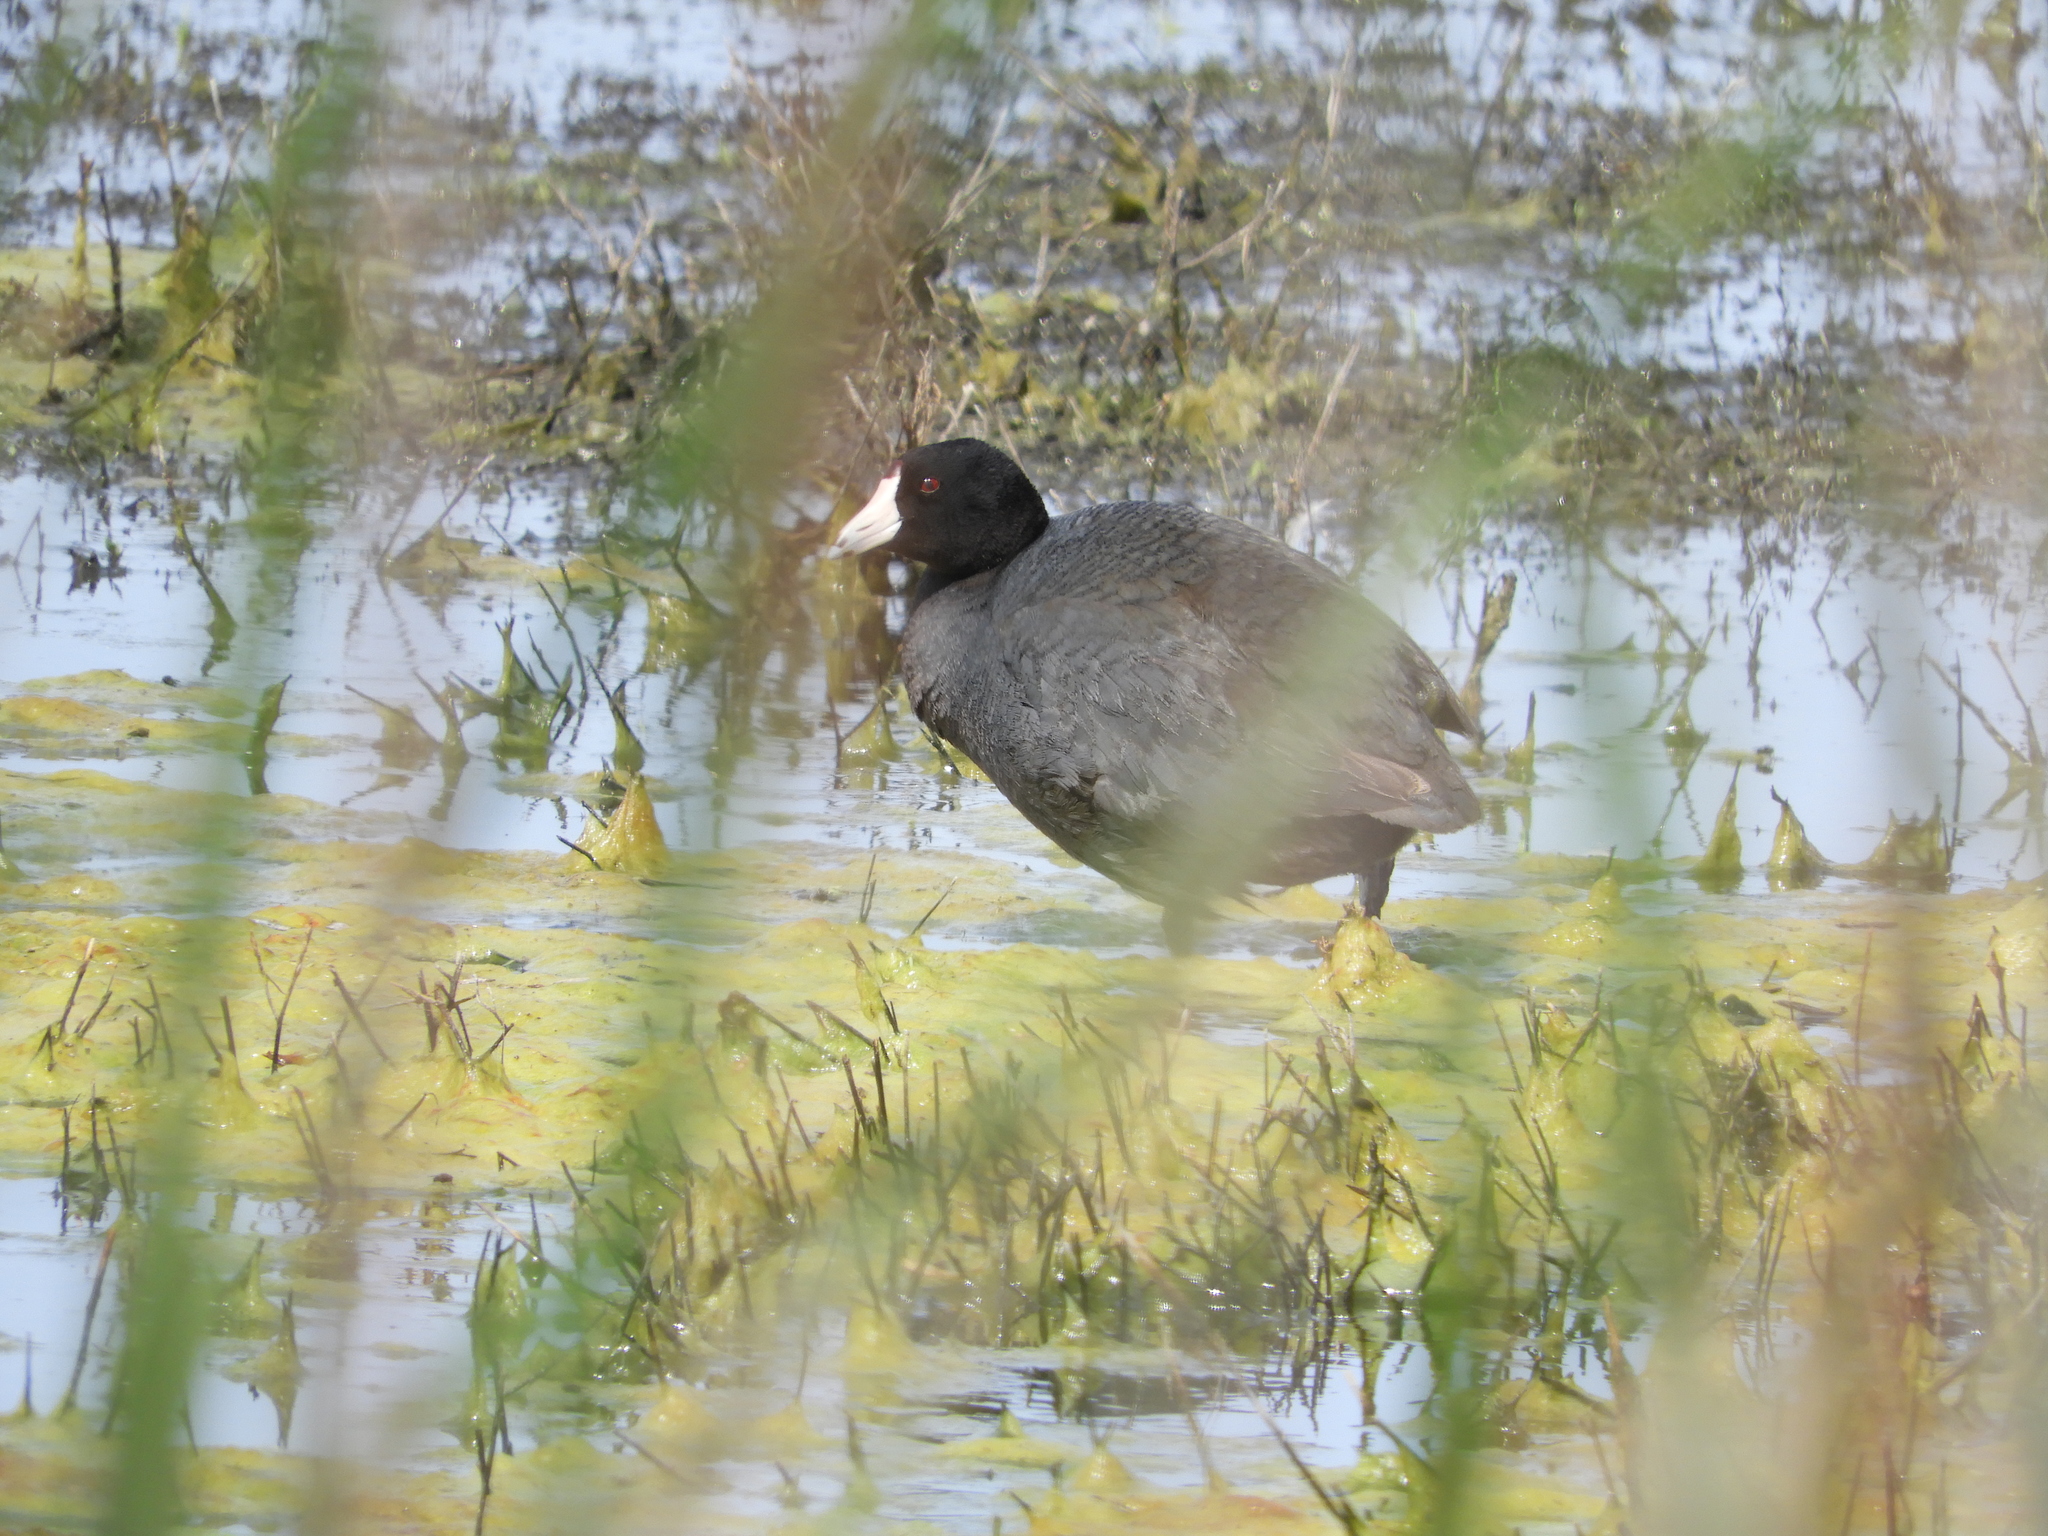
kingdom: Animalia
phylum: Chordata
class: Aves
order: Gruiformes
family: Rallidae
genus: Fulica
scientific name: Fulica americana
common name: American coot
